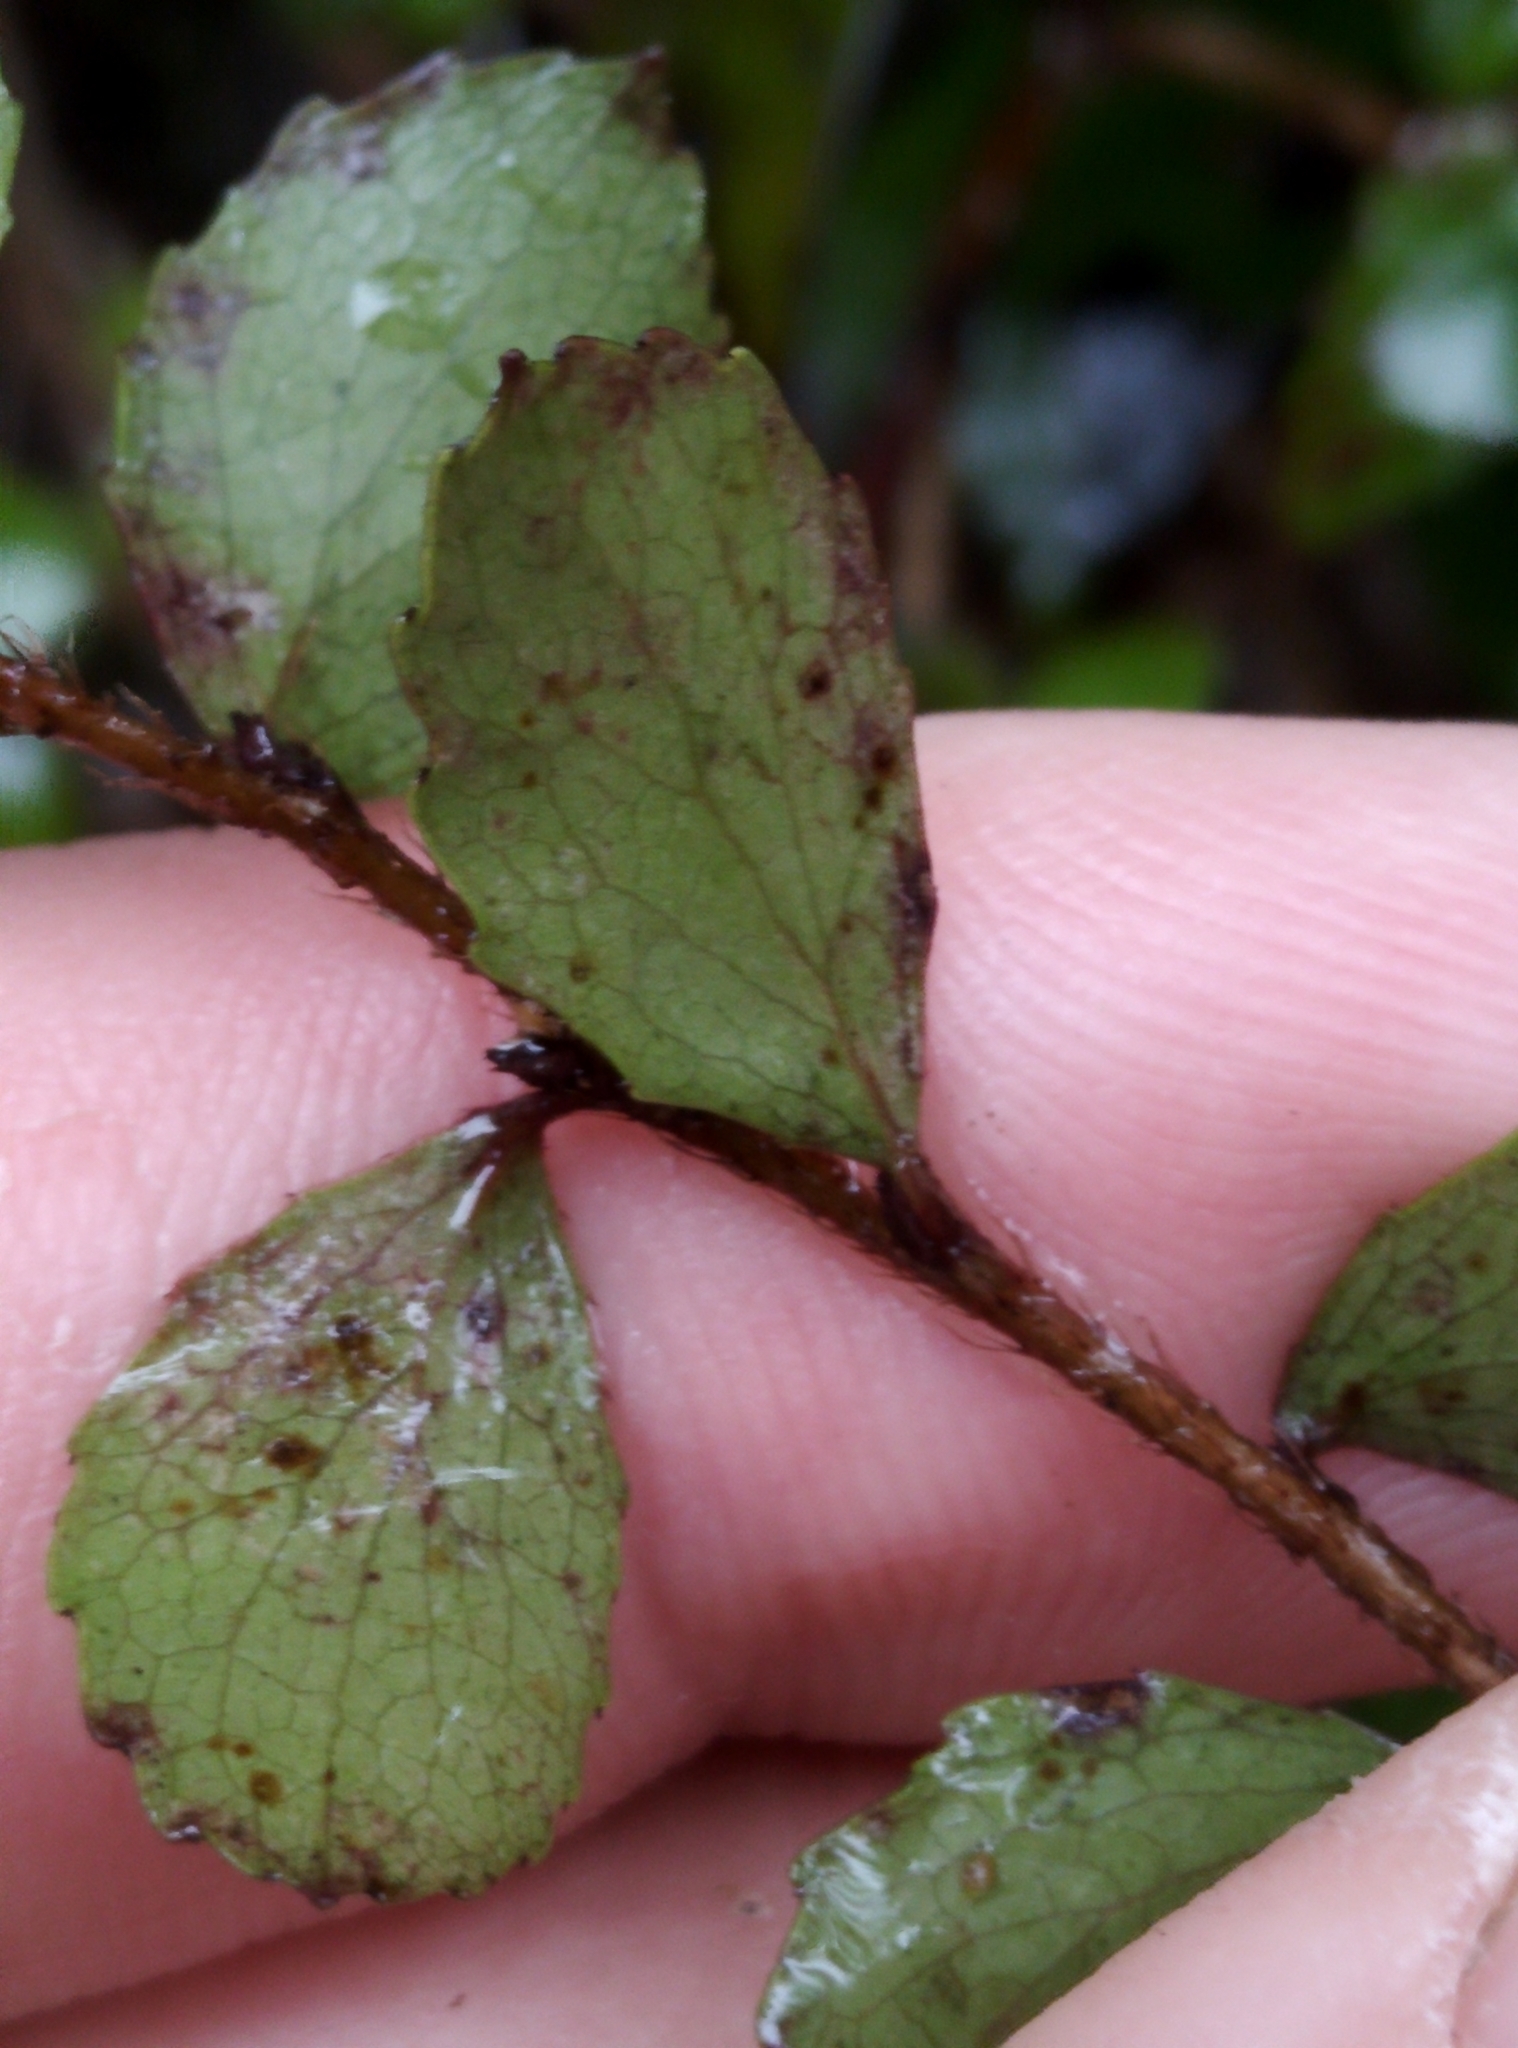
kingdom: Plantae
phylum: Tracheophyta
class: Magnoliopsida
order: Ericales
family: Ericaceae
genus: Gaultheria
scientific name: Gaultheria antipoda
